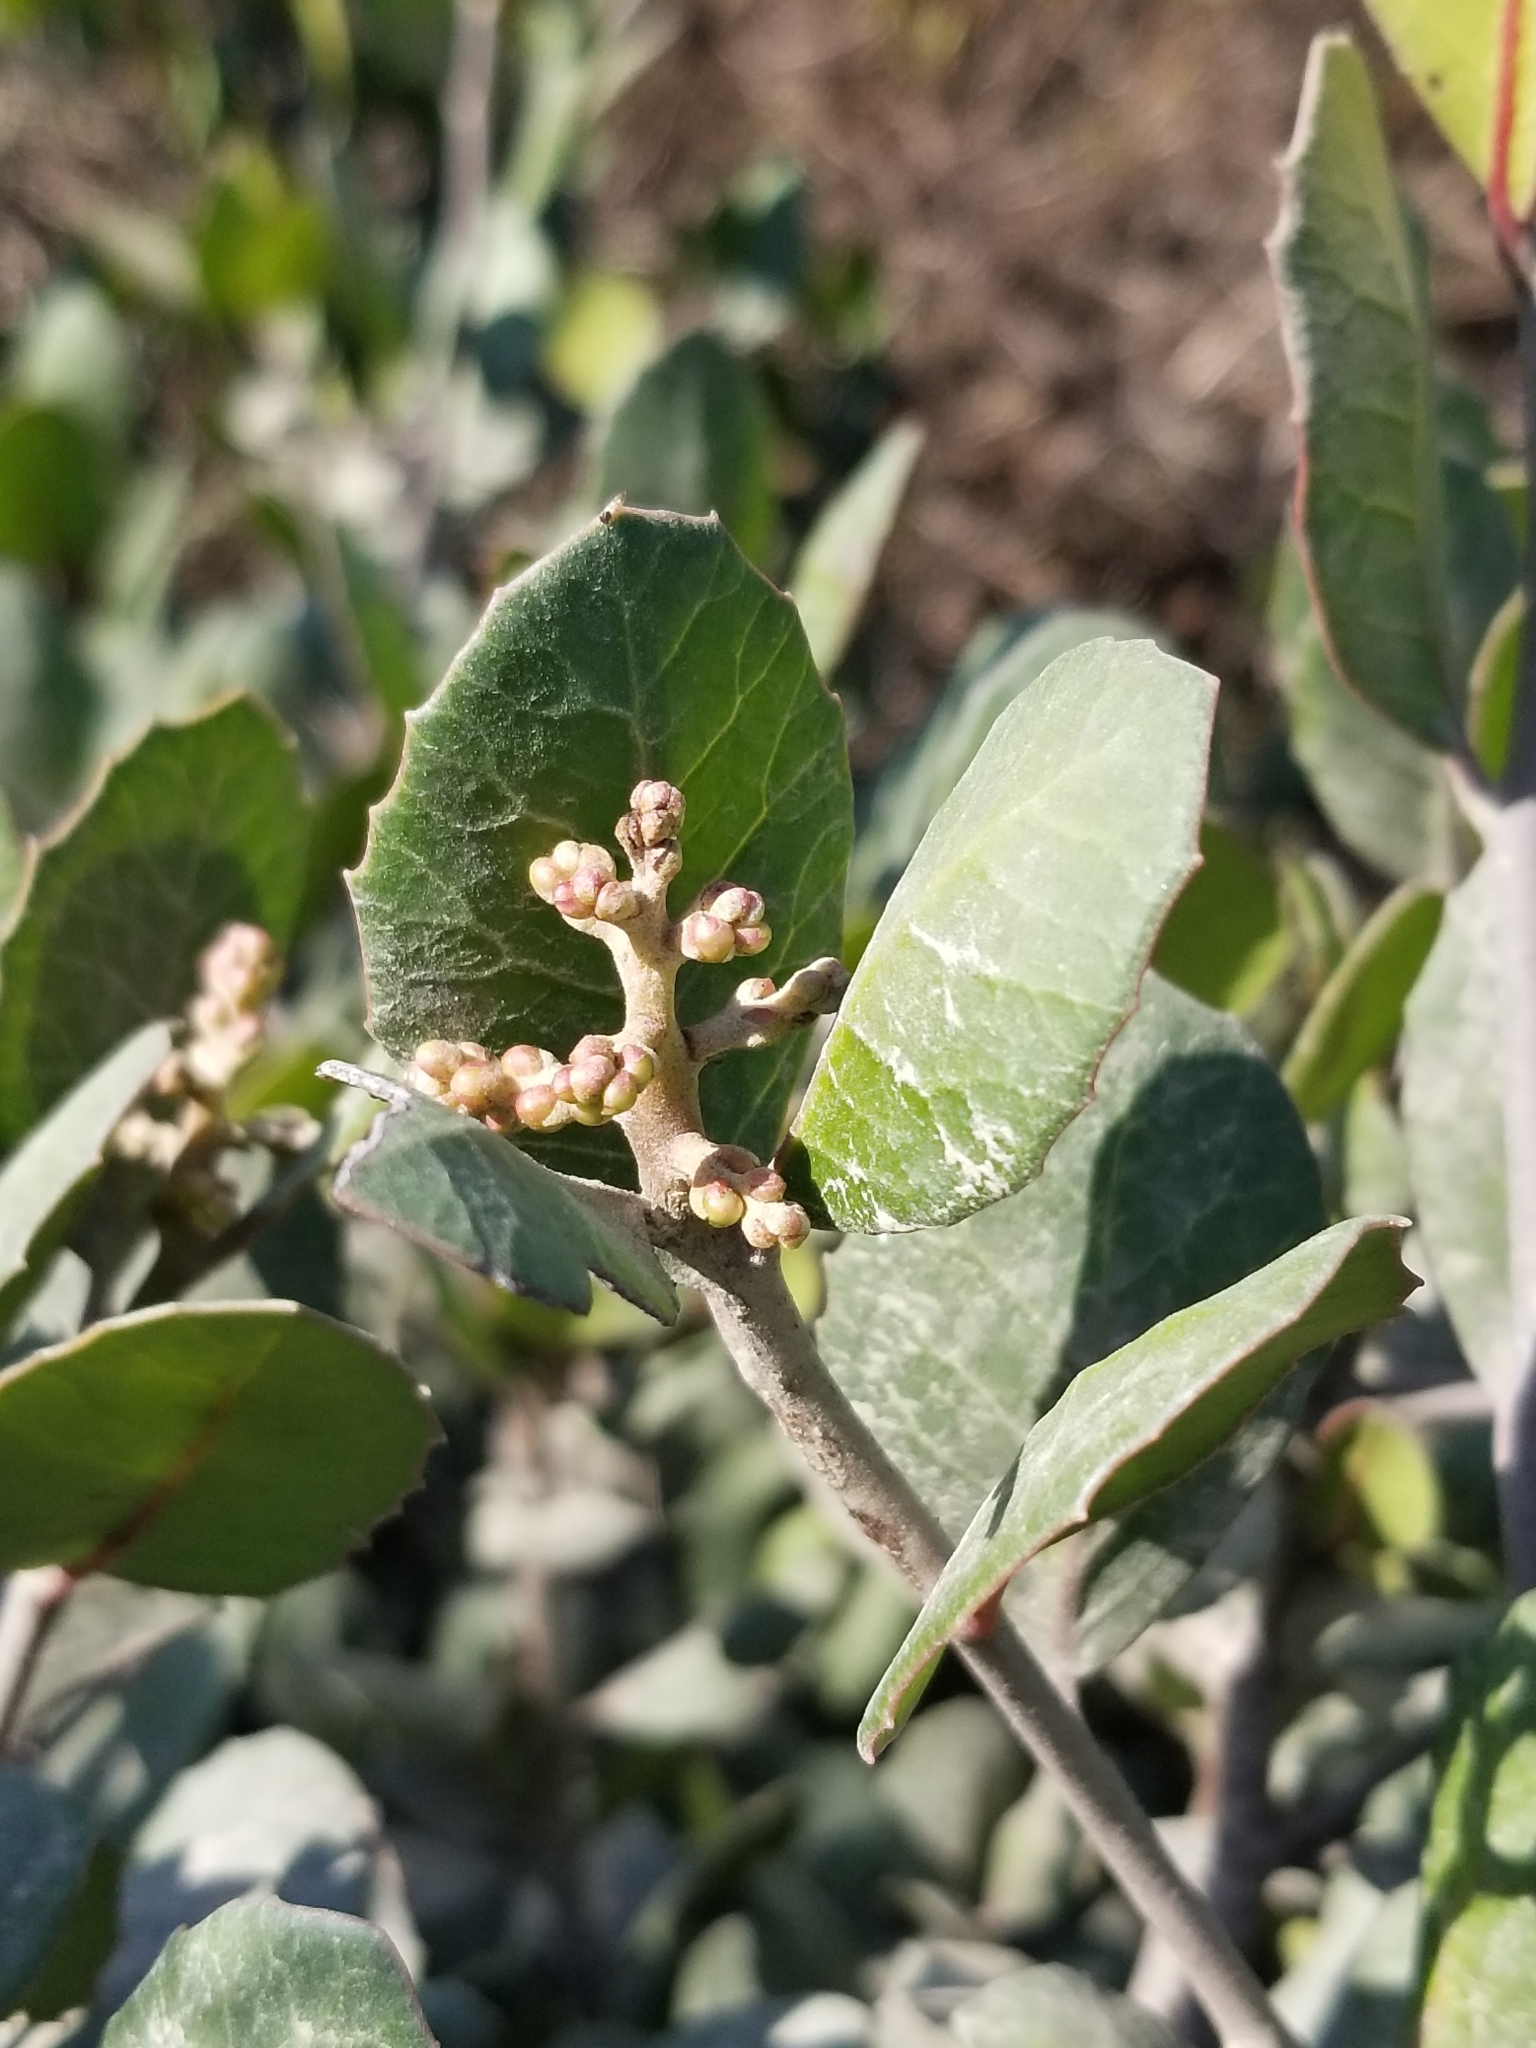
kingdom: Plantae
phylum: Tracheophyta
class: Magnoliopsida
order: Sapindales
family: Anacardiaceae
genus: Rhus
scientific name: Rhus integrifolia
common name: Lemonade sumac
